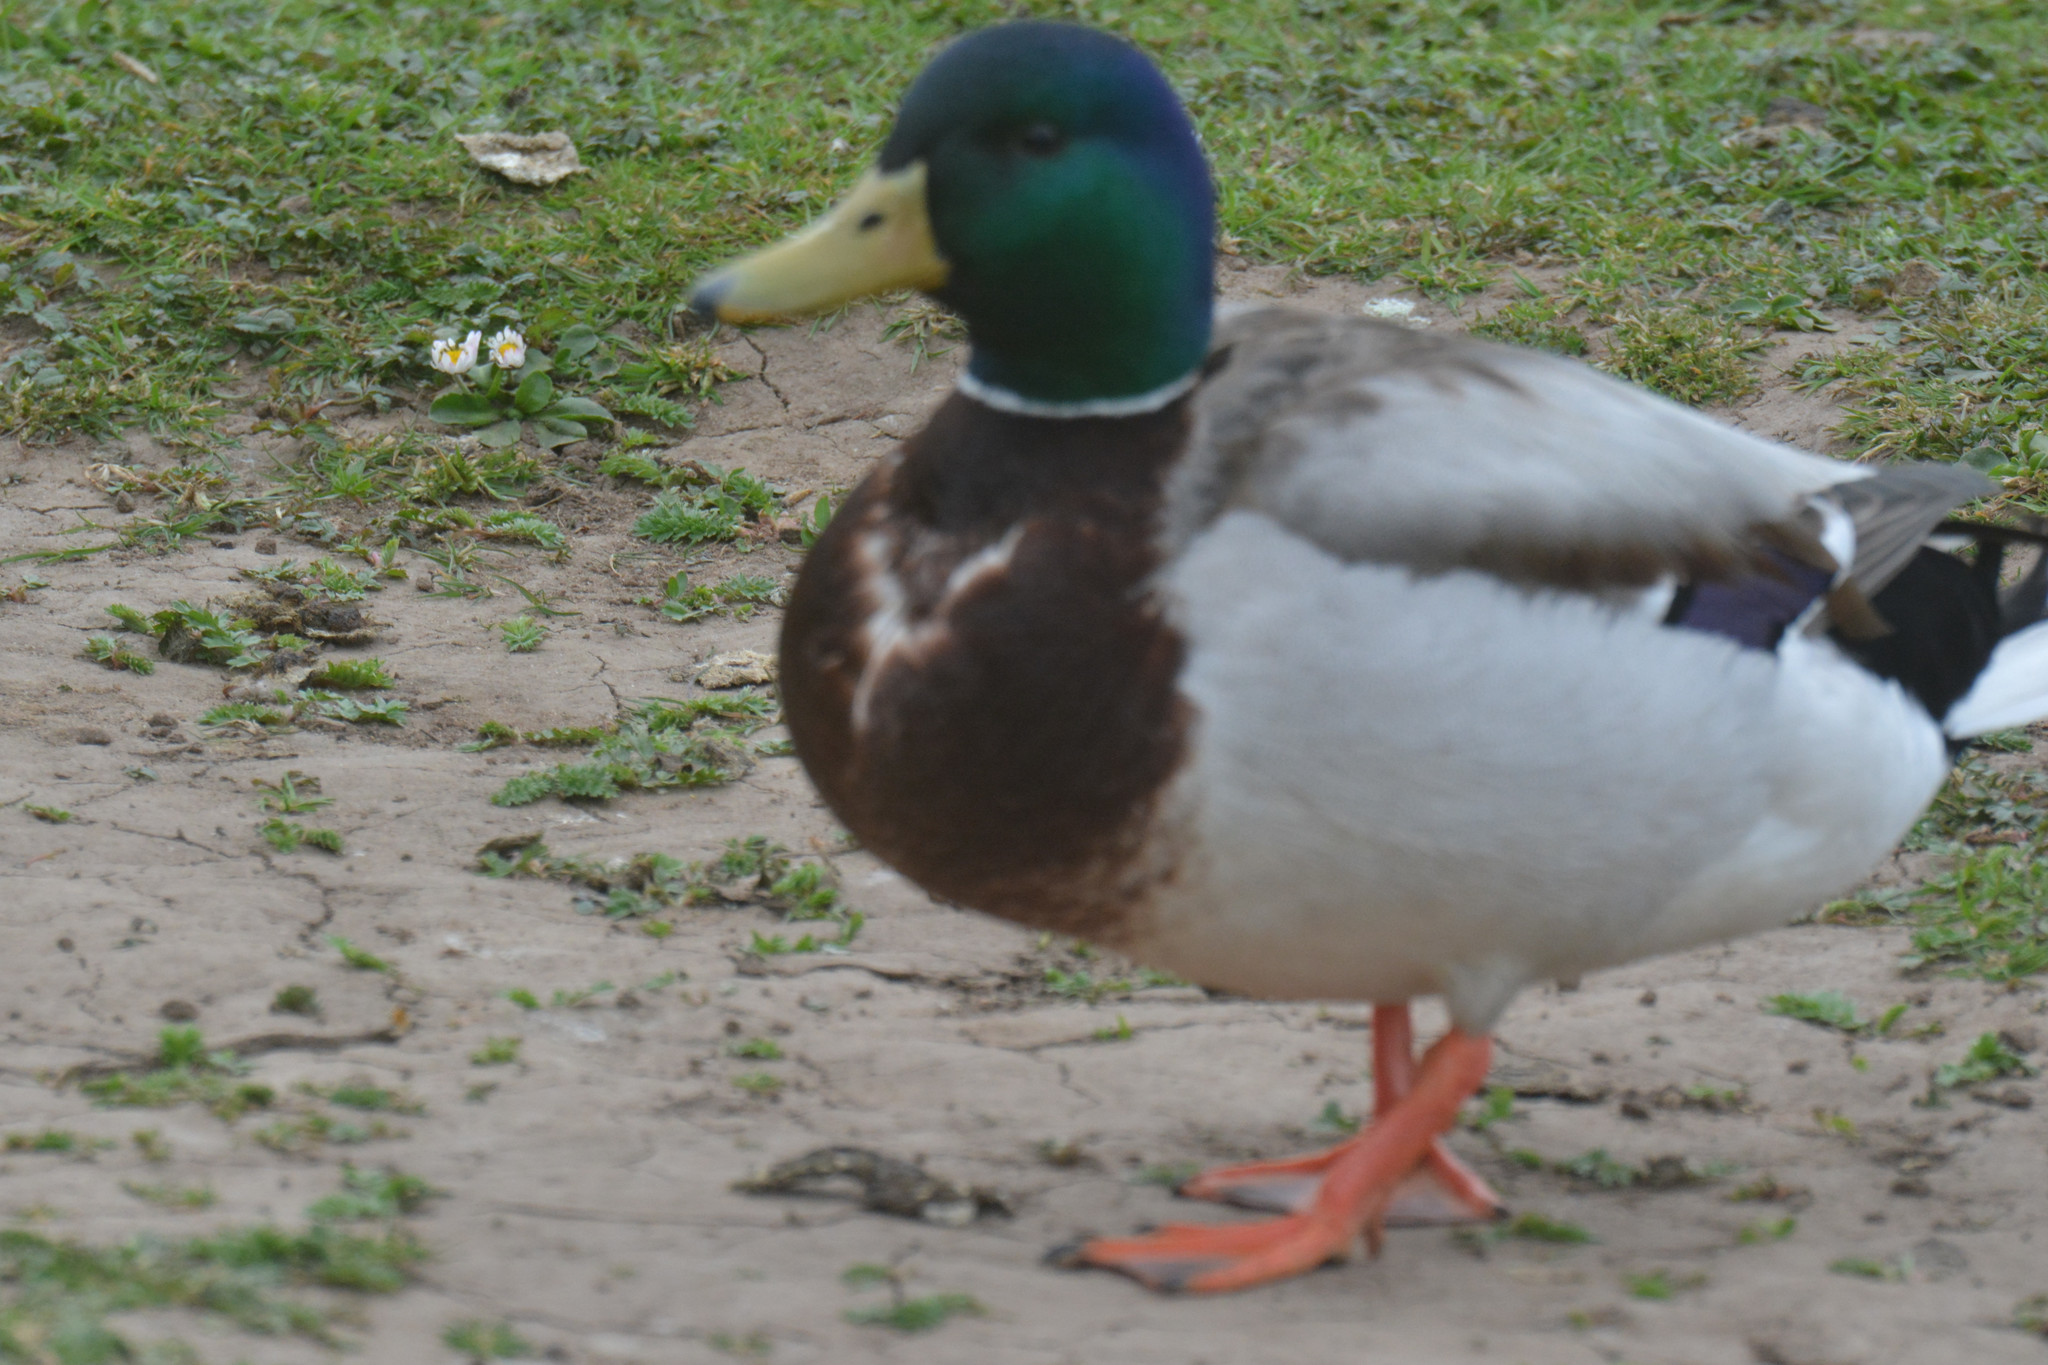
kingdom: Animalia
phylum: Chordata
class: Aves
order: Anseriformes
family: Anatidae
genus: Anas
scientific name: Anas platyrhynchos
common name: Mallard
